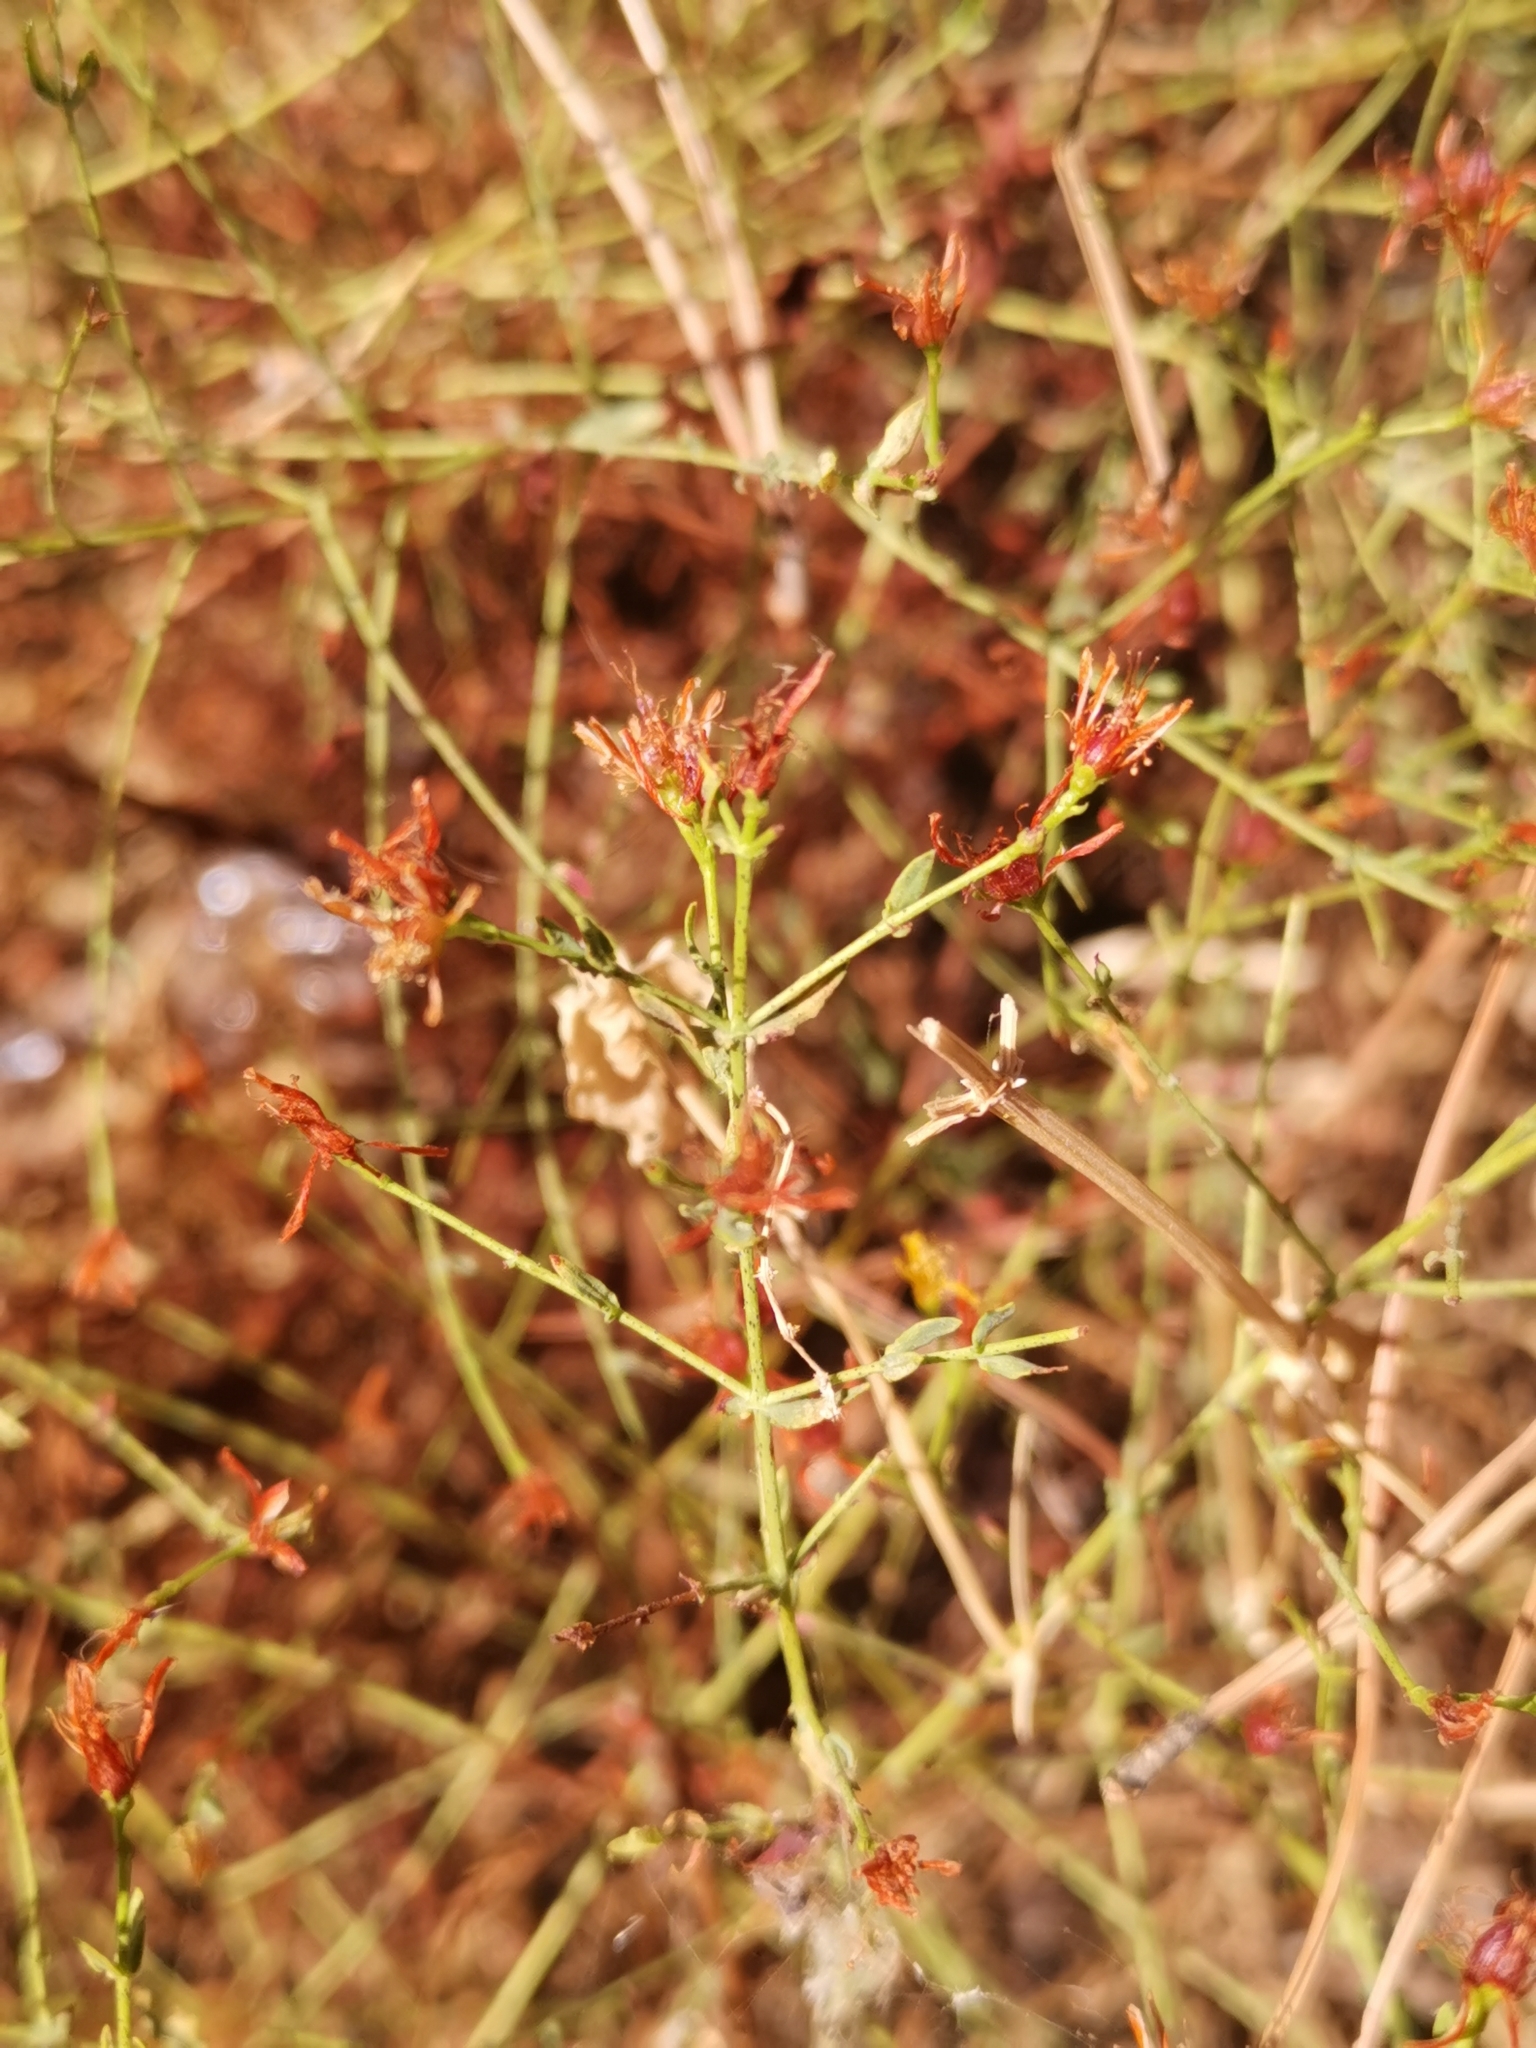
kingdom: Plantae
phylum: Tracheophyta
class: Magnoliopsida
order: Malpighiales
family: Hypericaceae
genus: Hypericum
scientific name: Hypericum triquetrifolium
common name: Tangled hypericum
